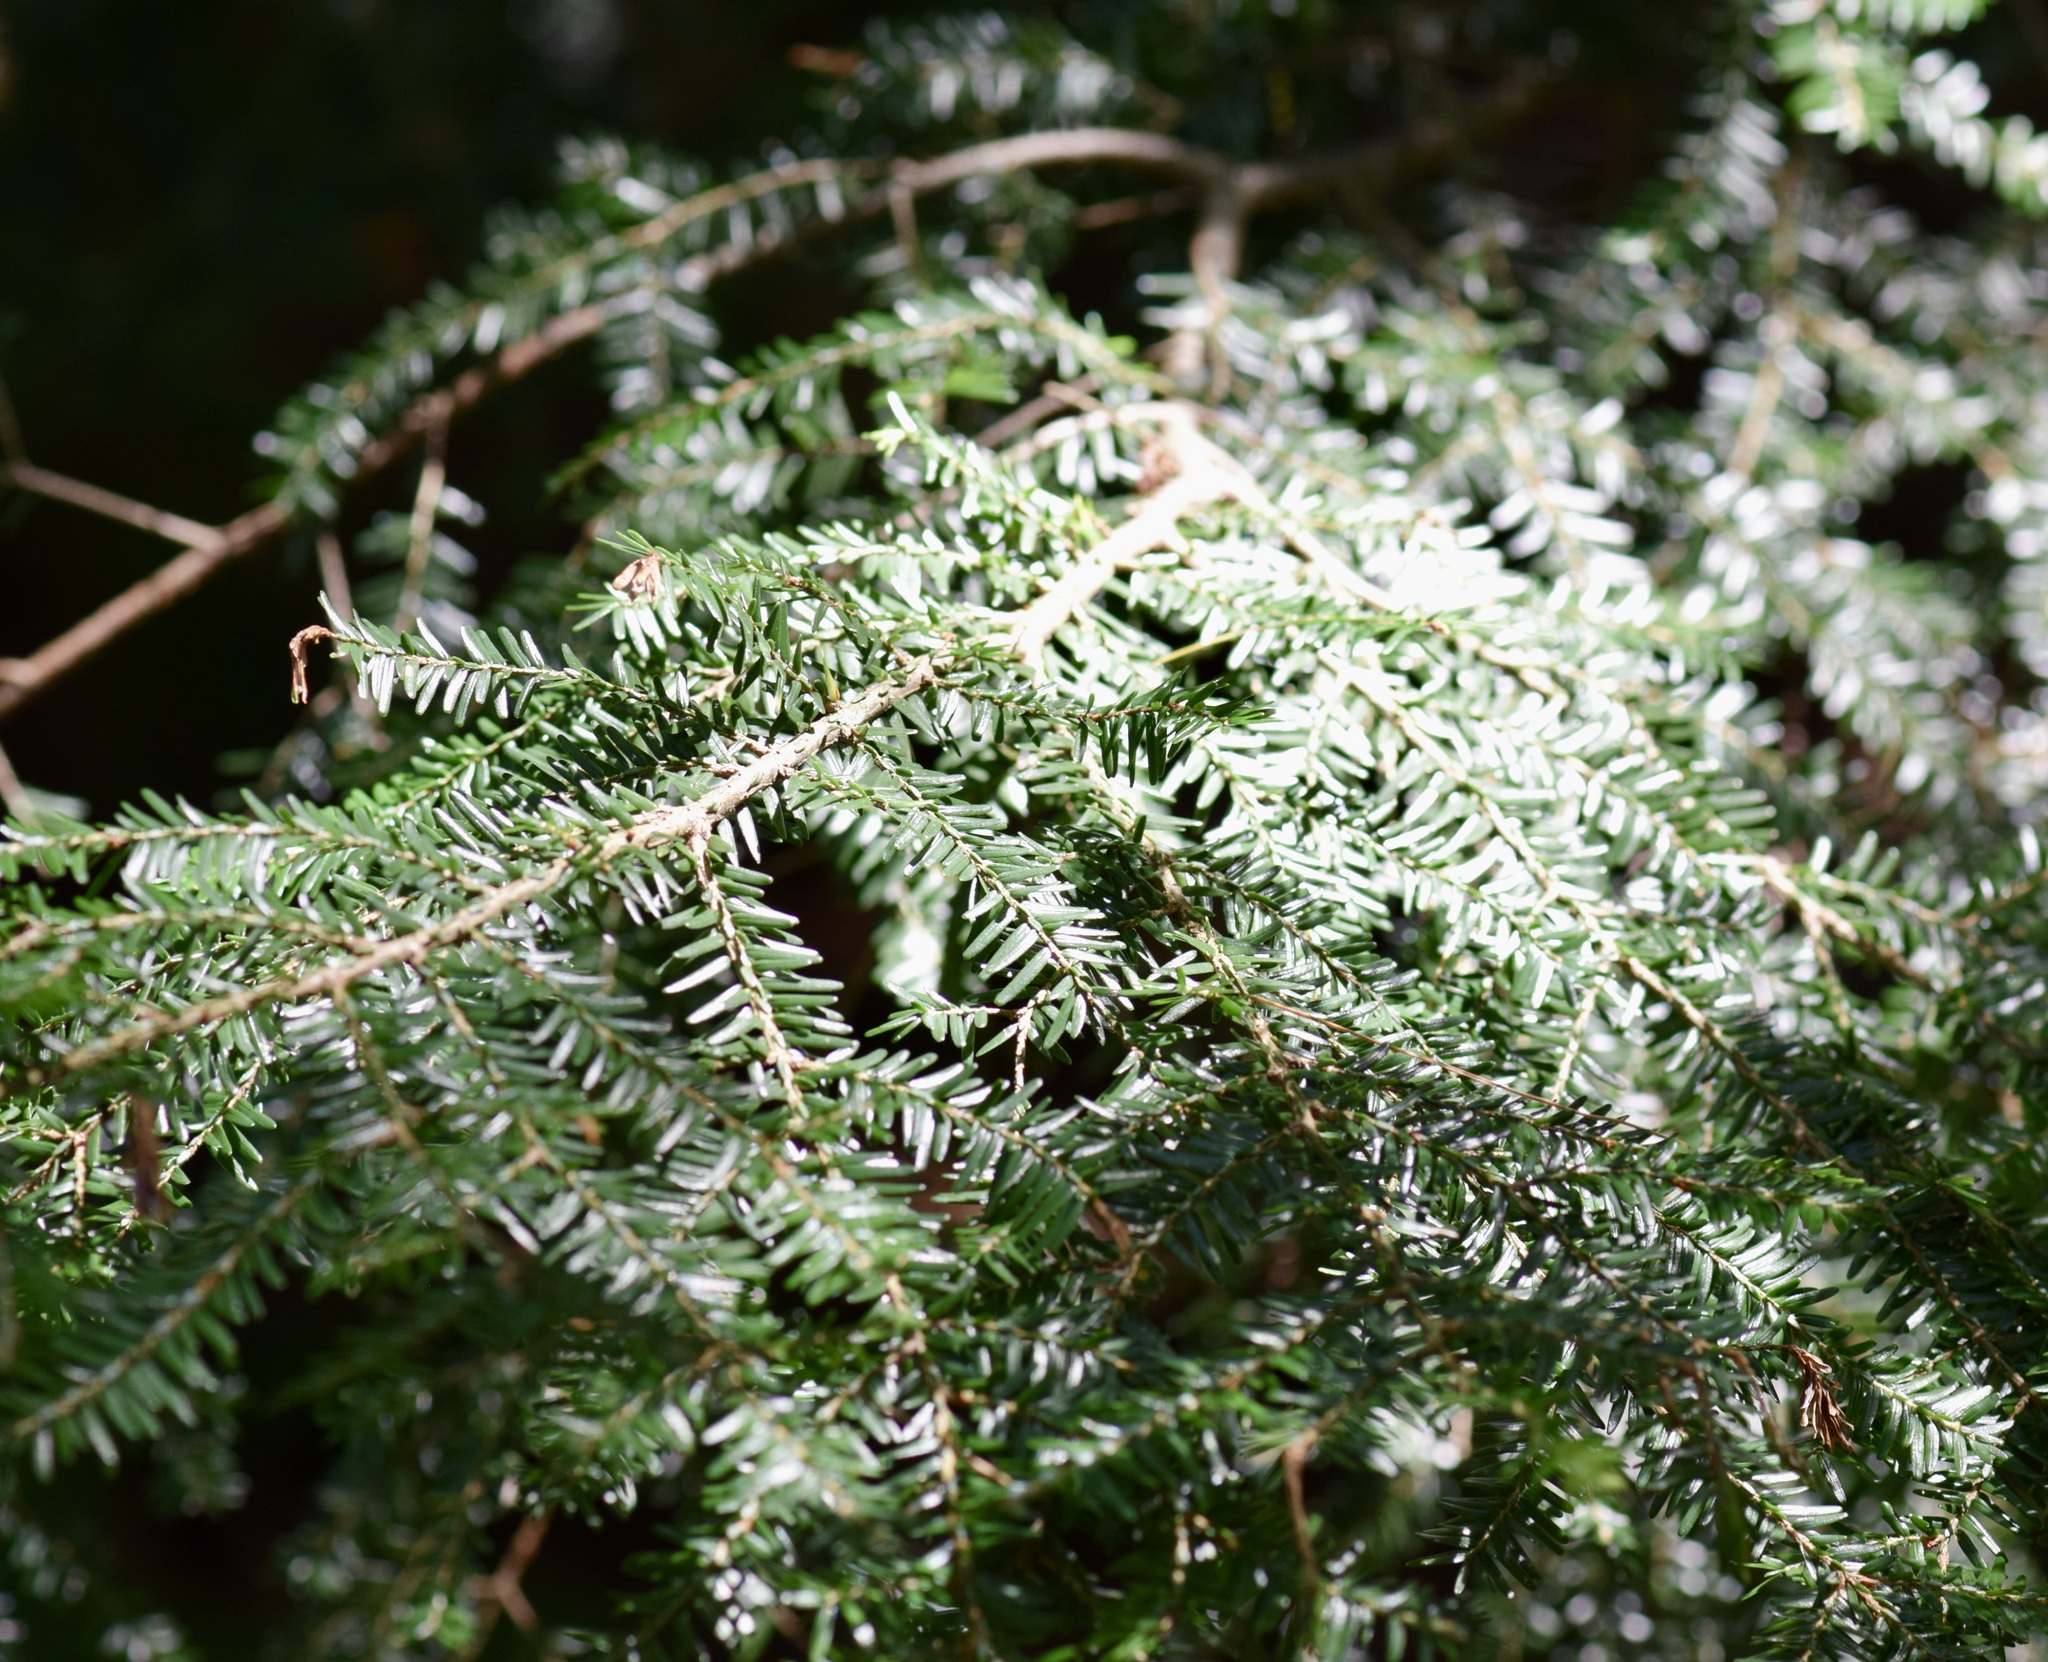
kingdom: Plantae
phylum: Tracheophyta
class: Pinopsida
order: Pinales
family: Pinaceae
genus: Tsuga
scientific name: Tsuga canadensis
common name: Eastern hemlock
